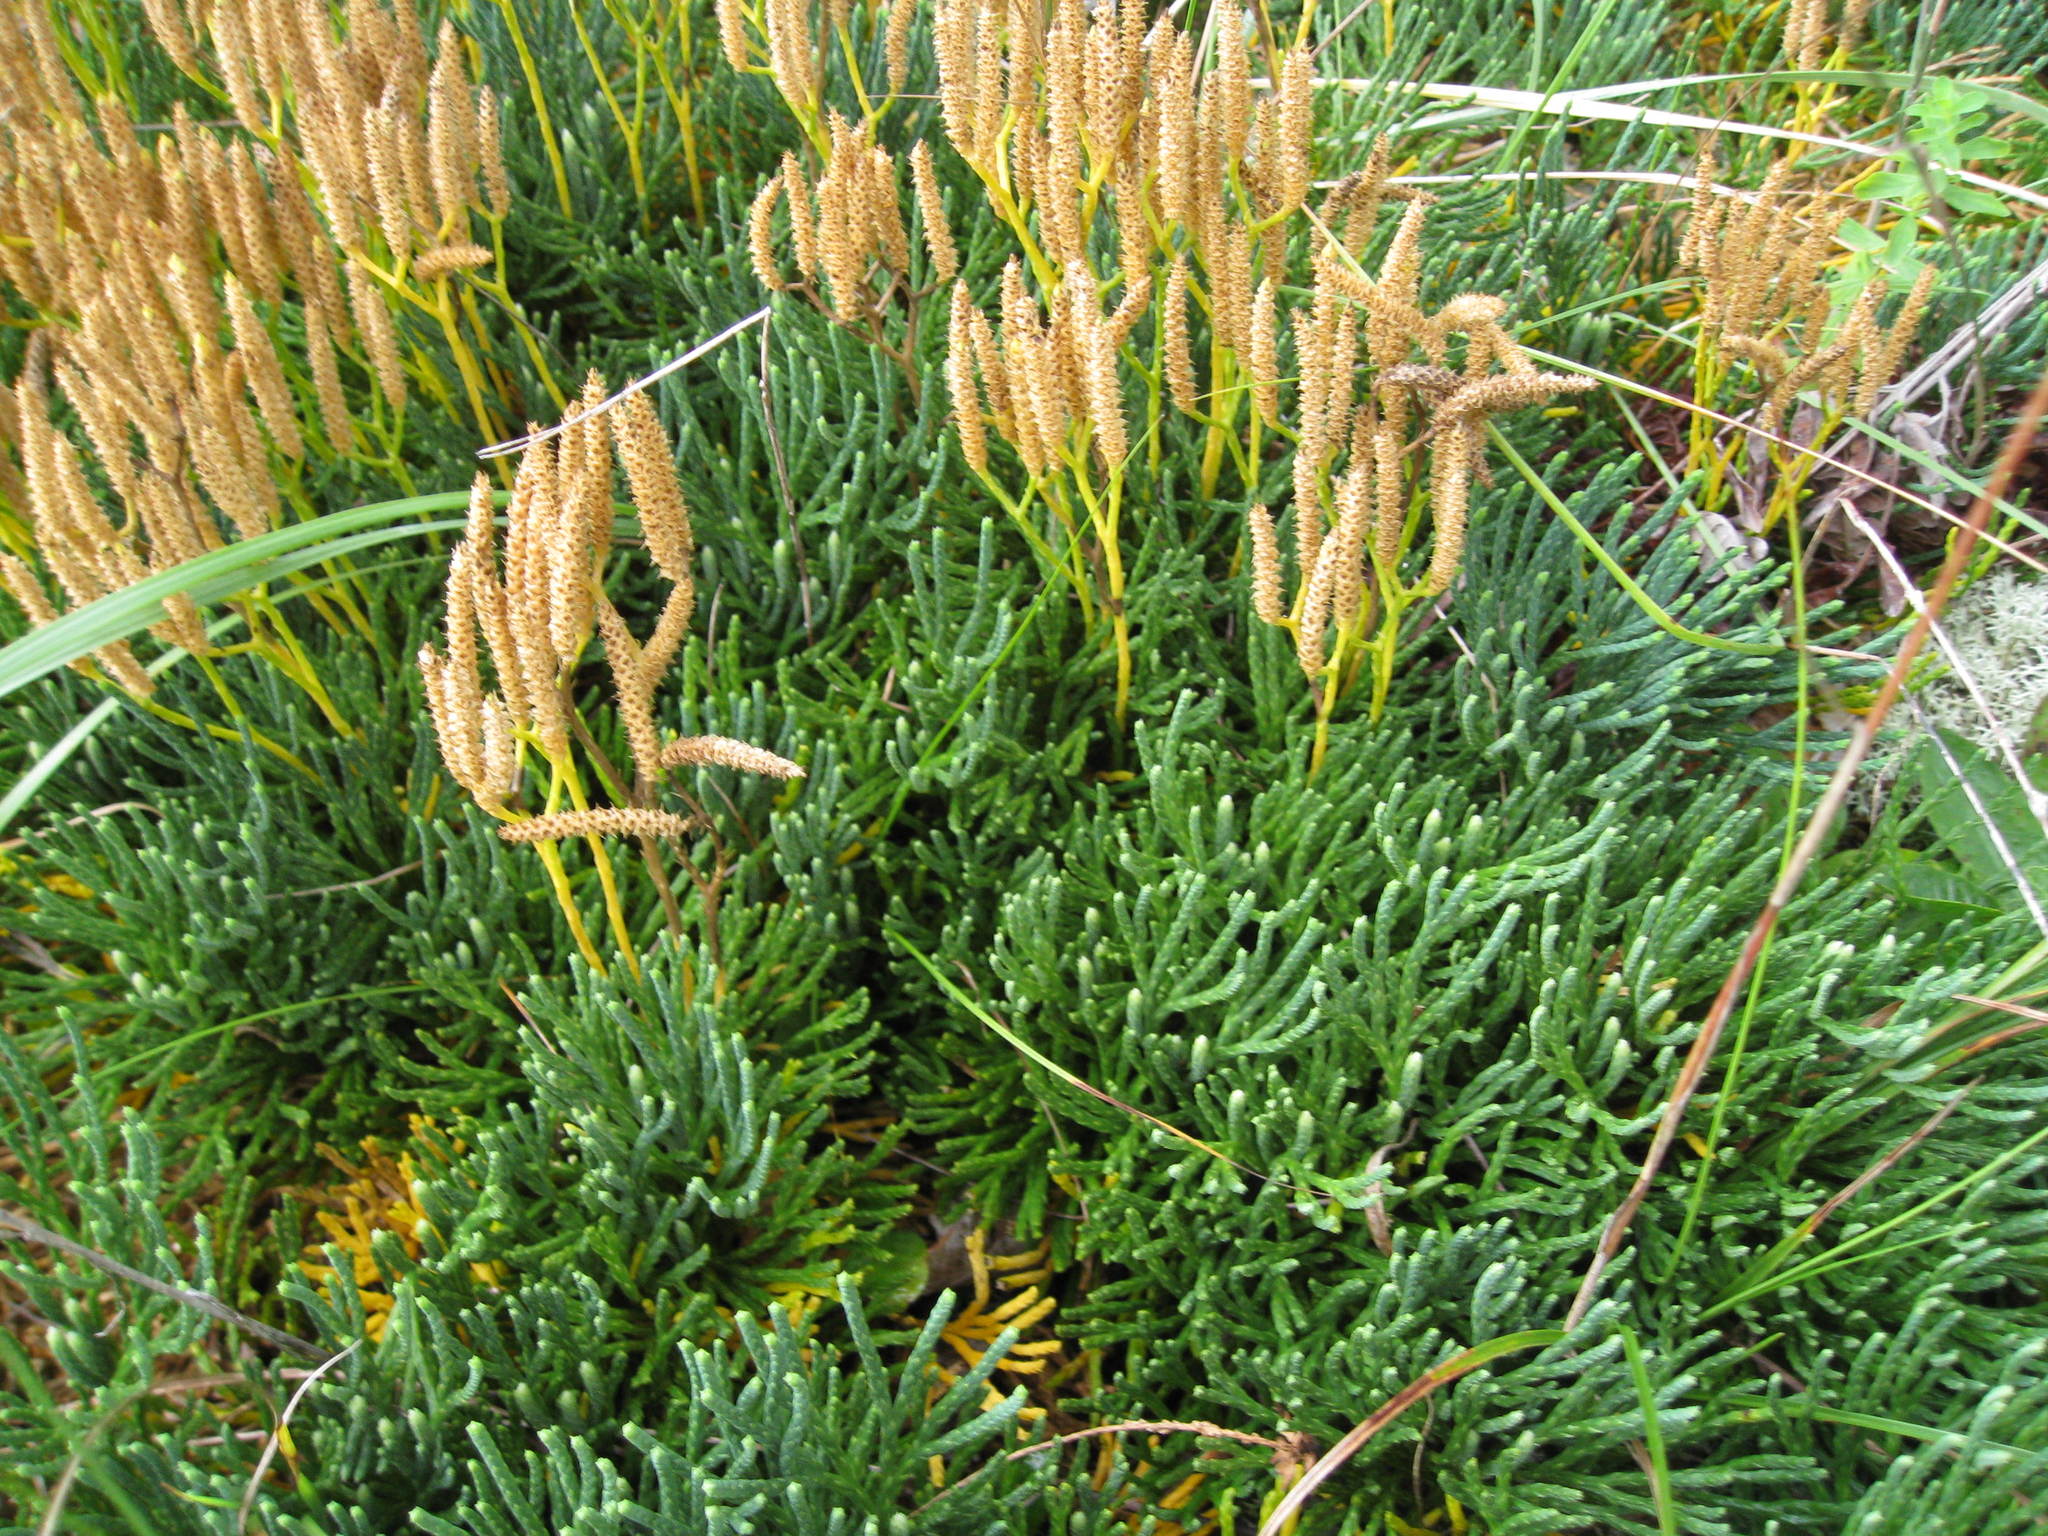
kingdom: Plantae
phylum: Tracheophyta
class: Lycopodiopsida
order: Lycopodiales
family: Lycopodiaceae
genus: Diphasiastrum
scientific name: Diphasiastrum tristachyum
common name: Blue ground-cedar
